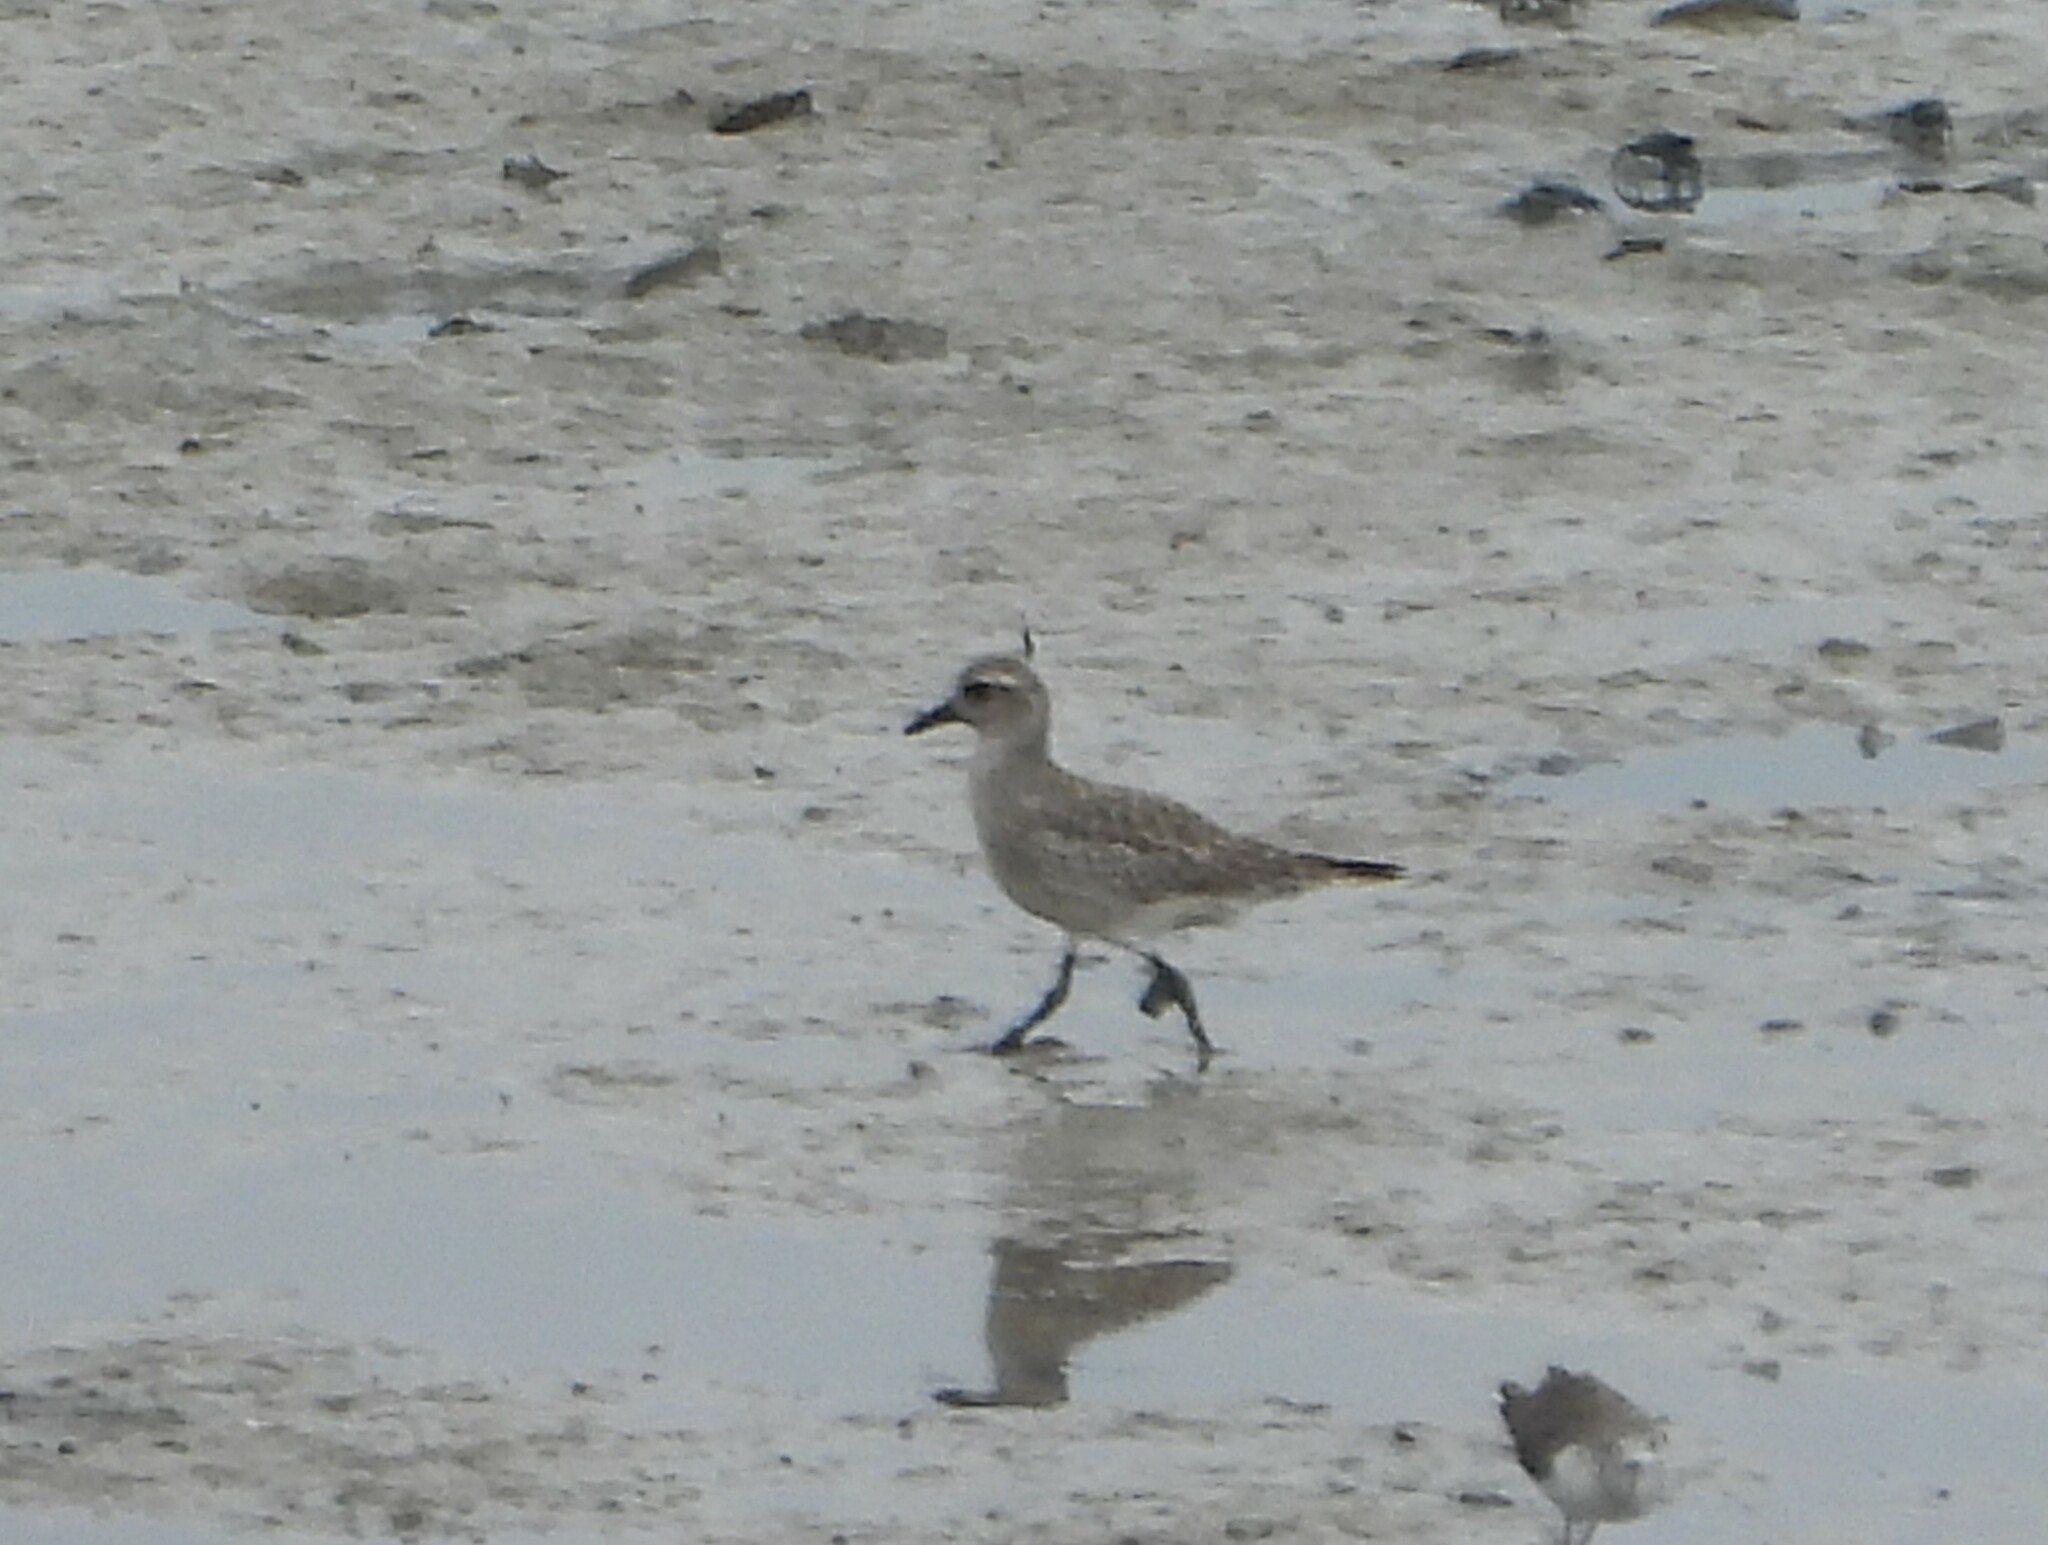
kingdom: Animalia
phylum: Chordata
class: Aves
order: Charadriiformes
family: Charadriidae
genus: Pluvialis
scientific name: Pluvialis squatarola
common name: Grey plover
